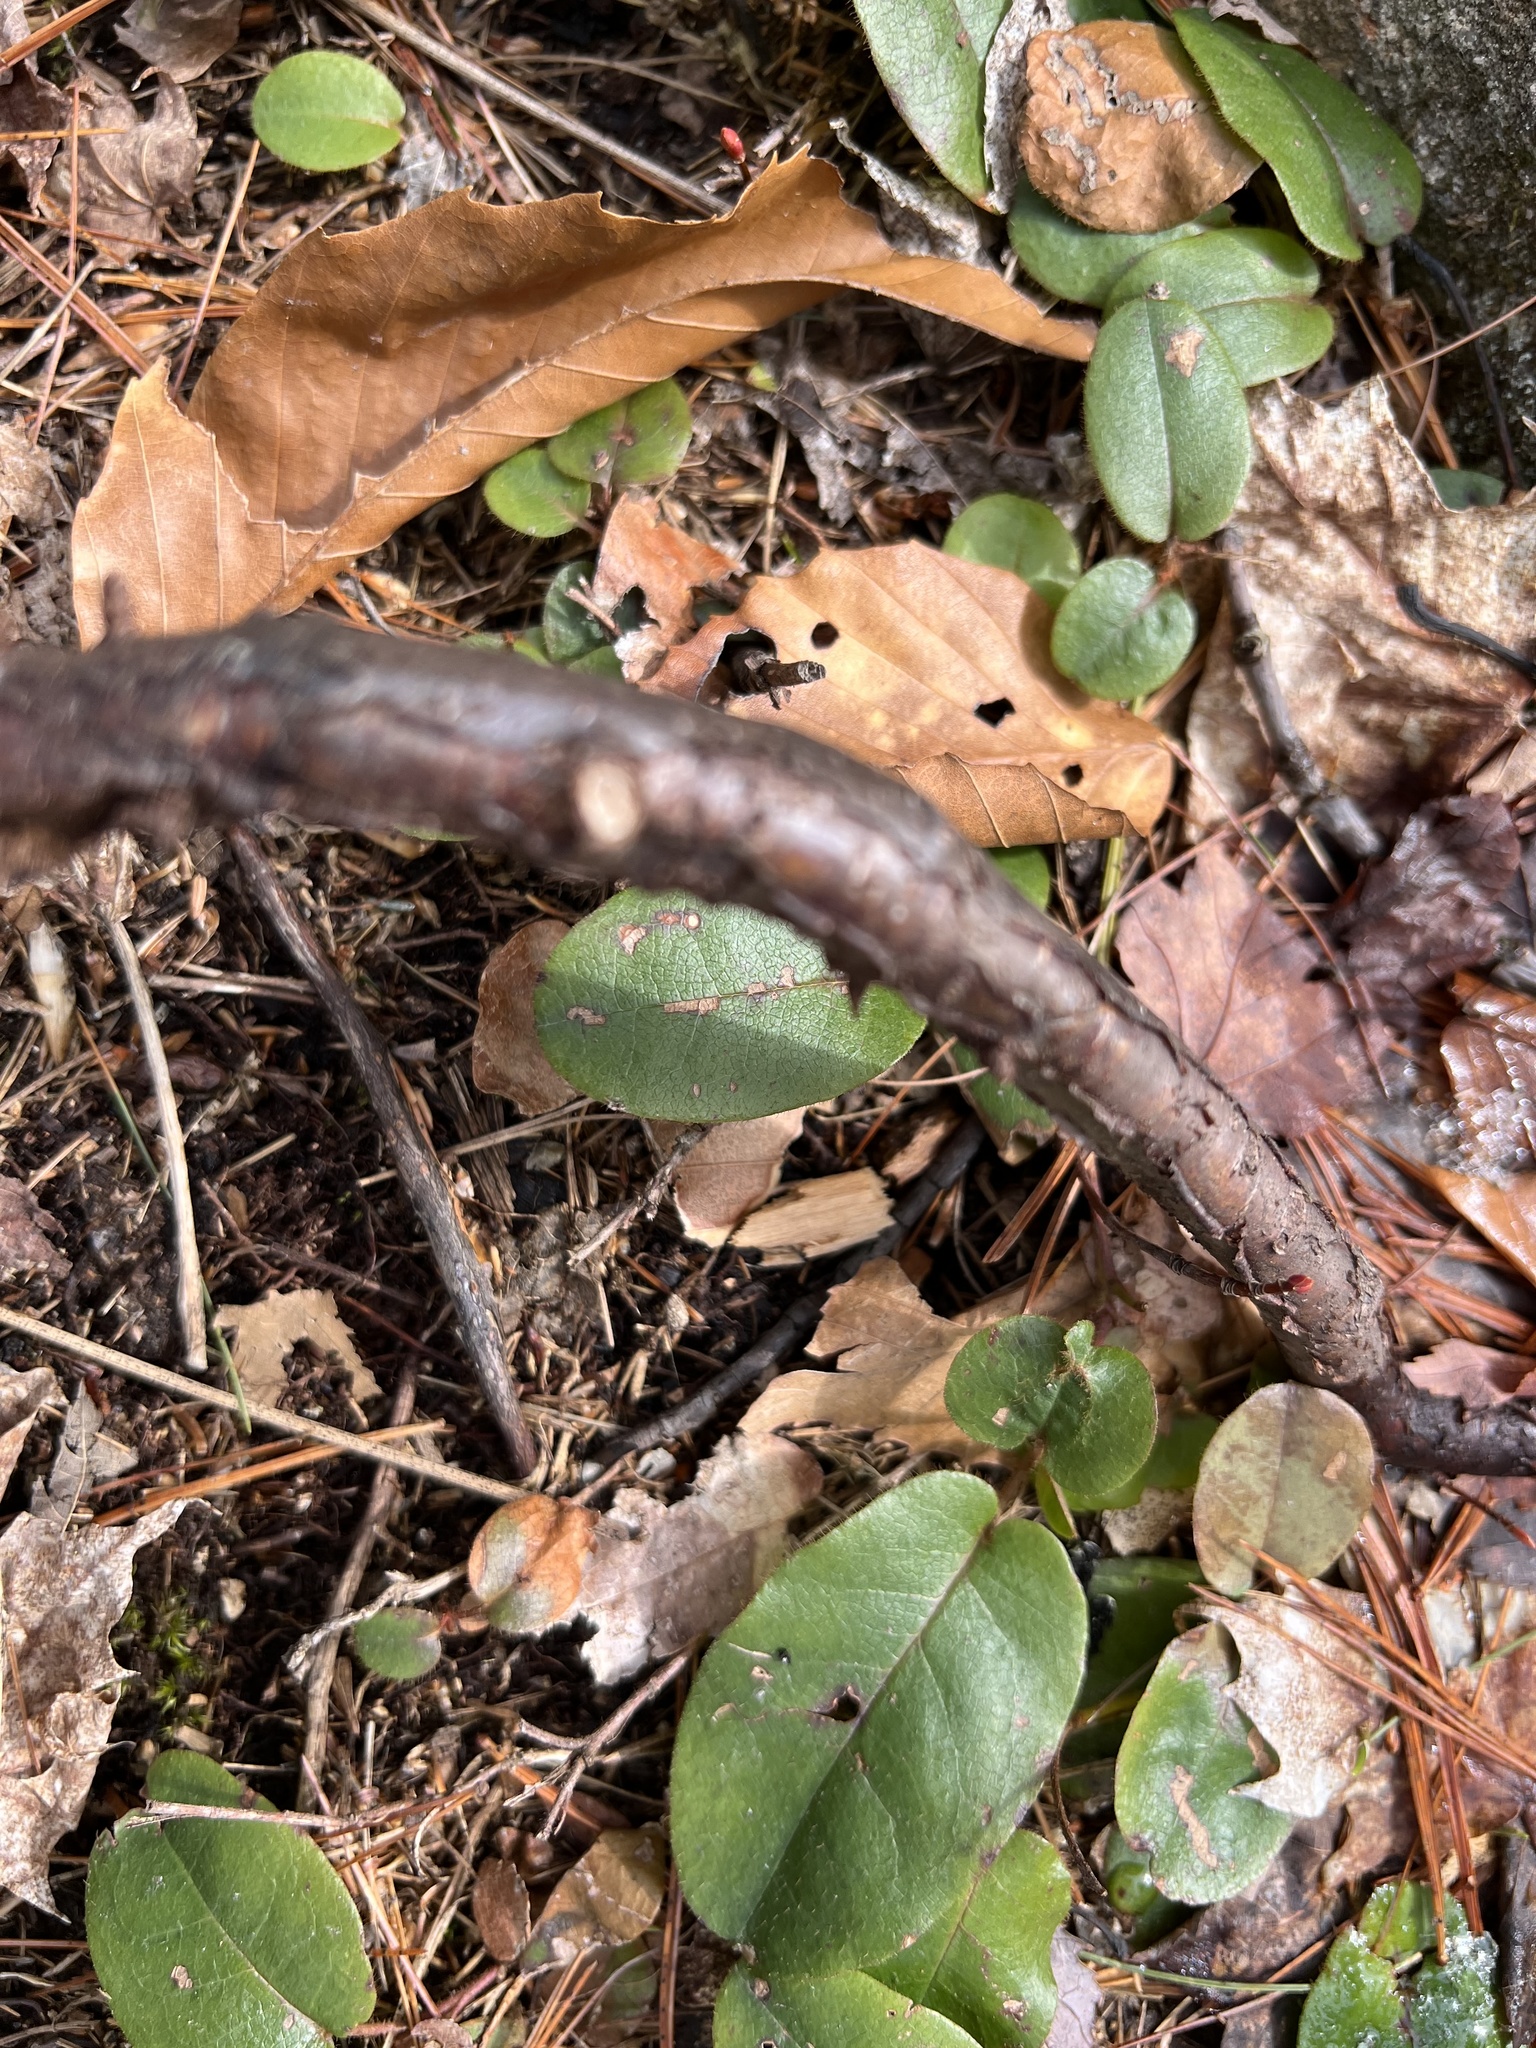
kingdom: Plantae
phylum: Tracheophyta
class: Magnoliopsida
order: Ericales
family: Ericaceae
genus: Epigaea
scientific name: Epigaea repens
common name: Gravelroot
